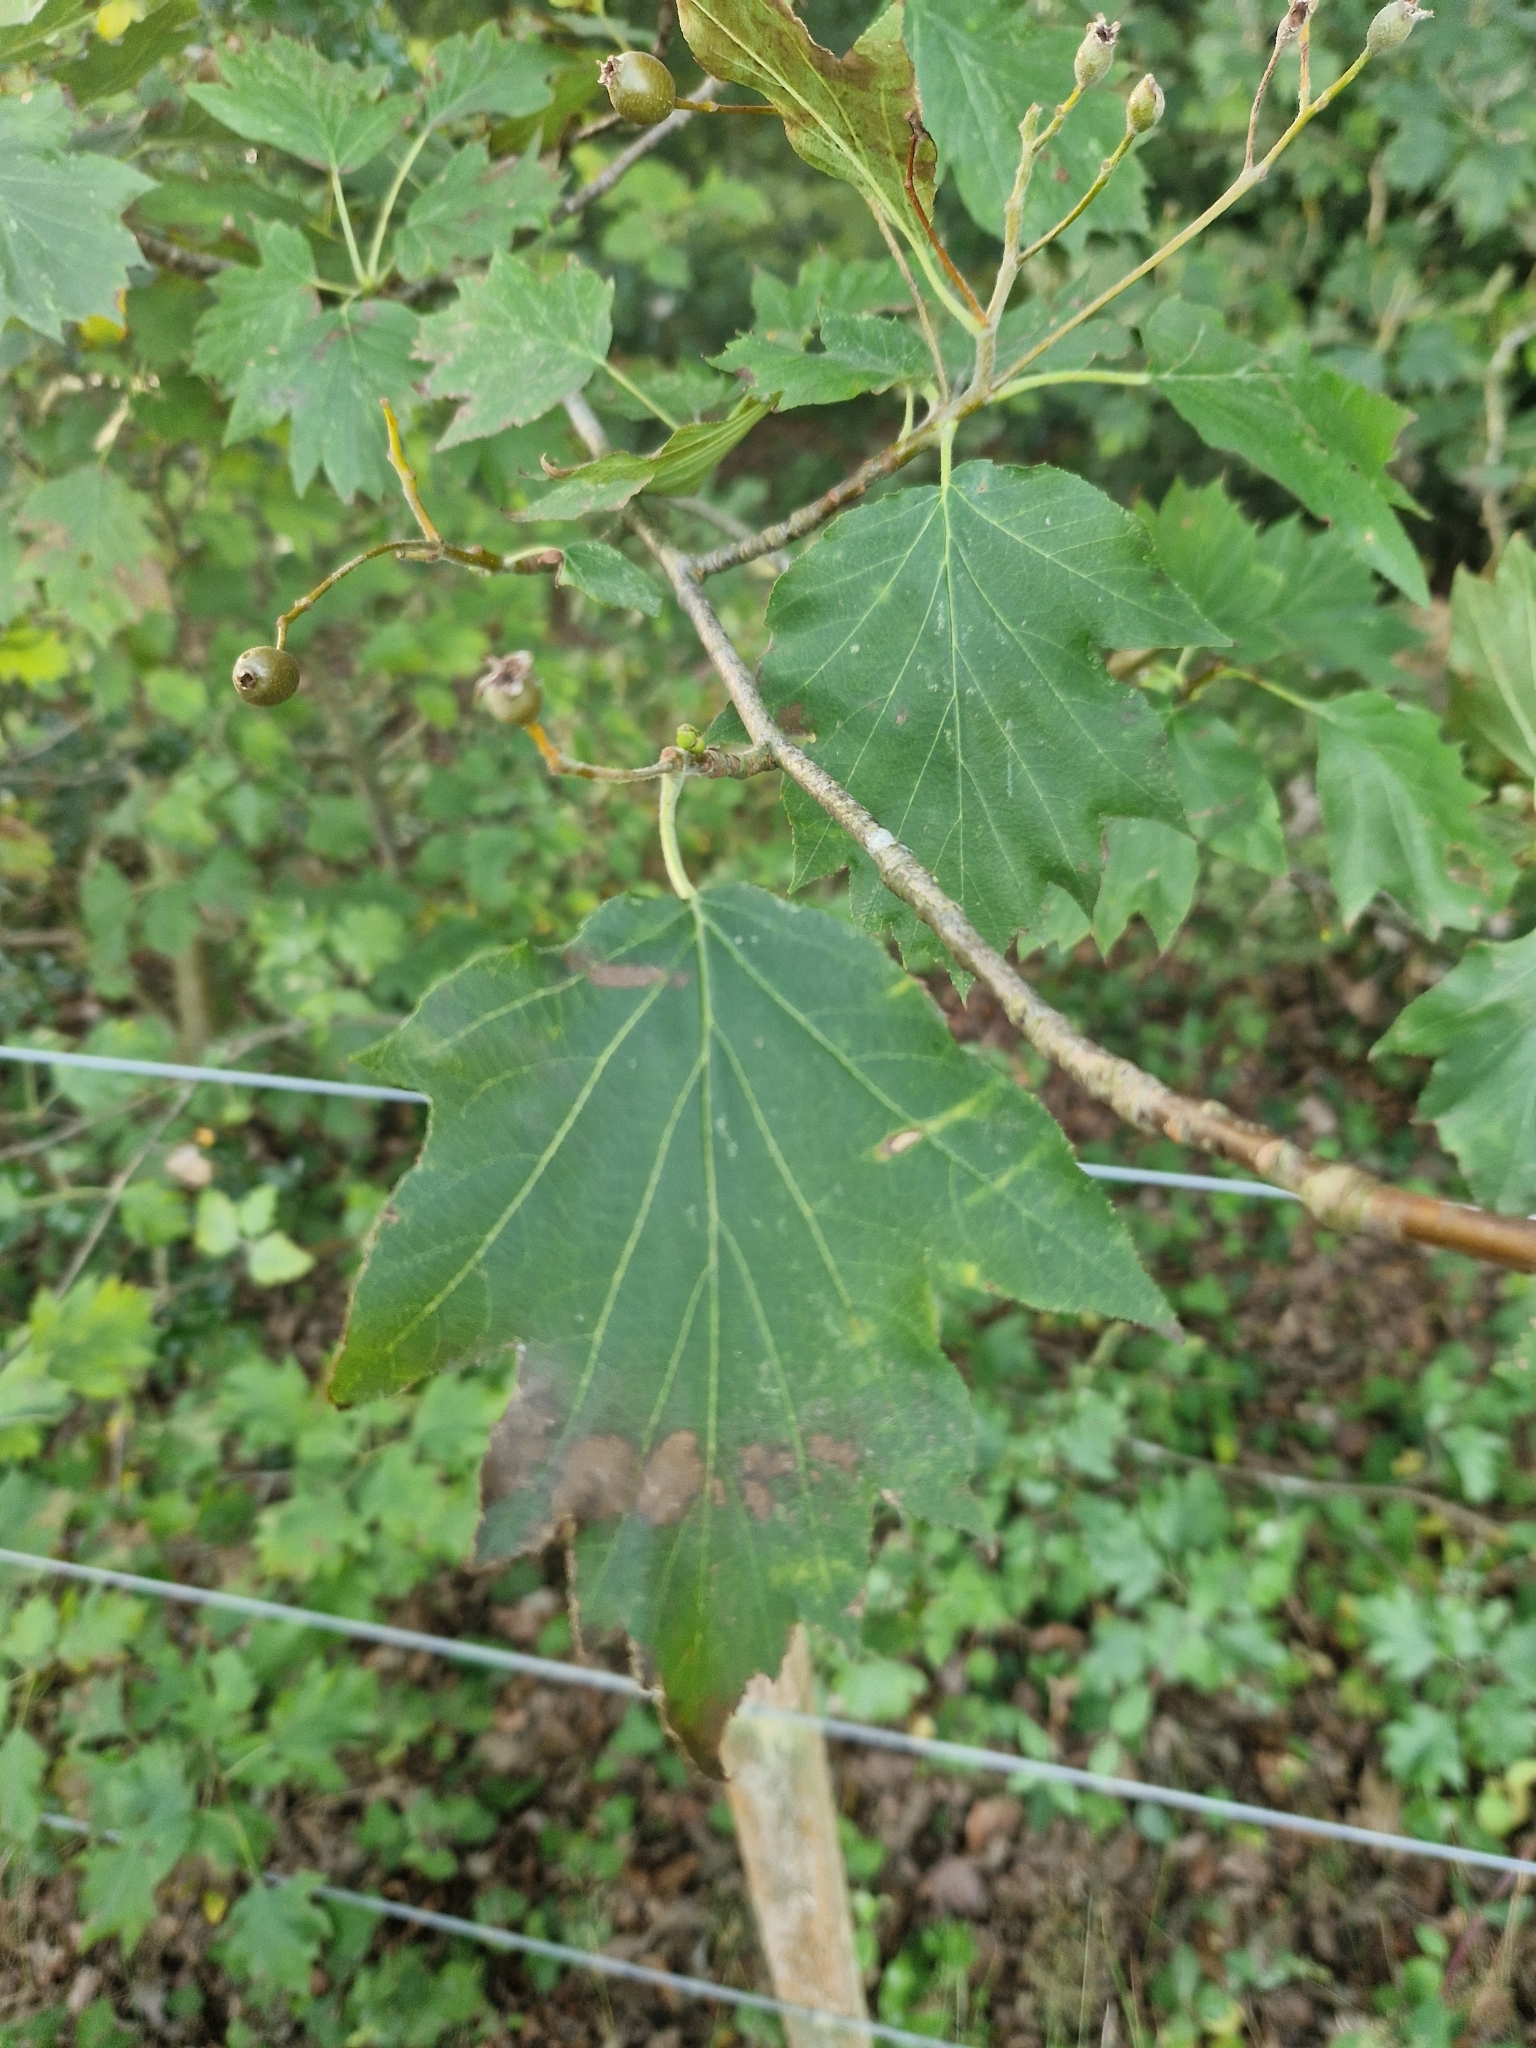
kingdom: Plantae
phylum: Tracheophyta
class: Magnoliopsida
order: Rosales
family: Rosaceae
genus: Torminalis
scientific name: Torminalis glaberrima
